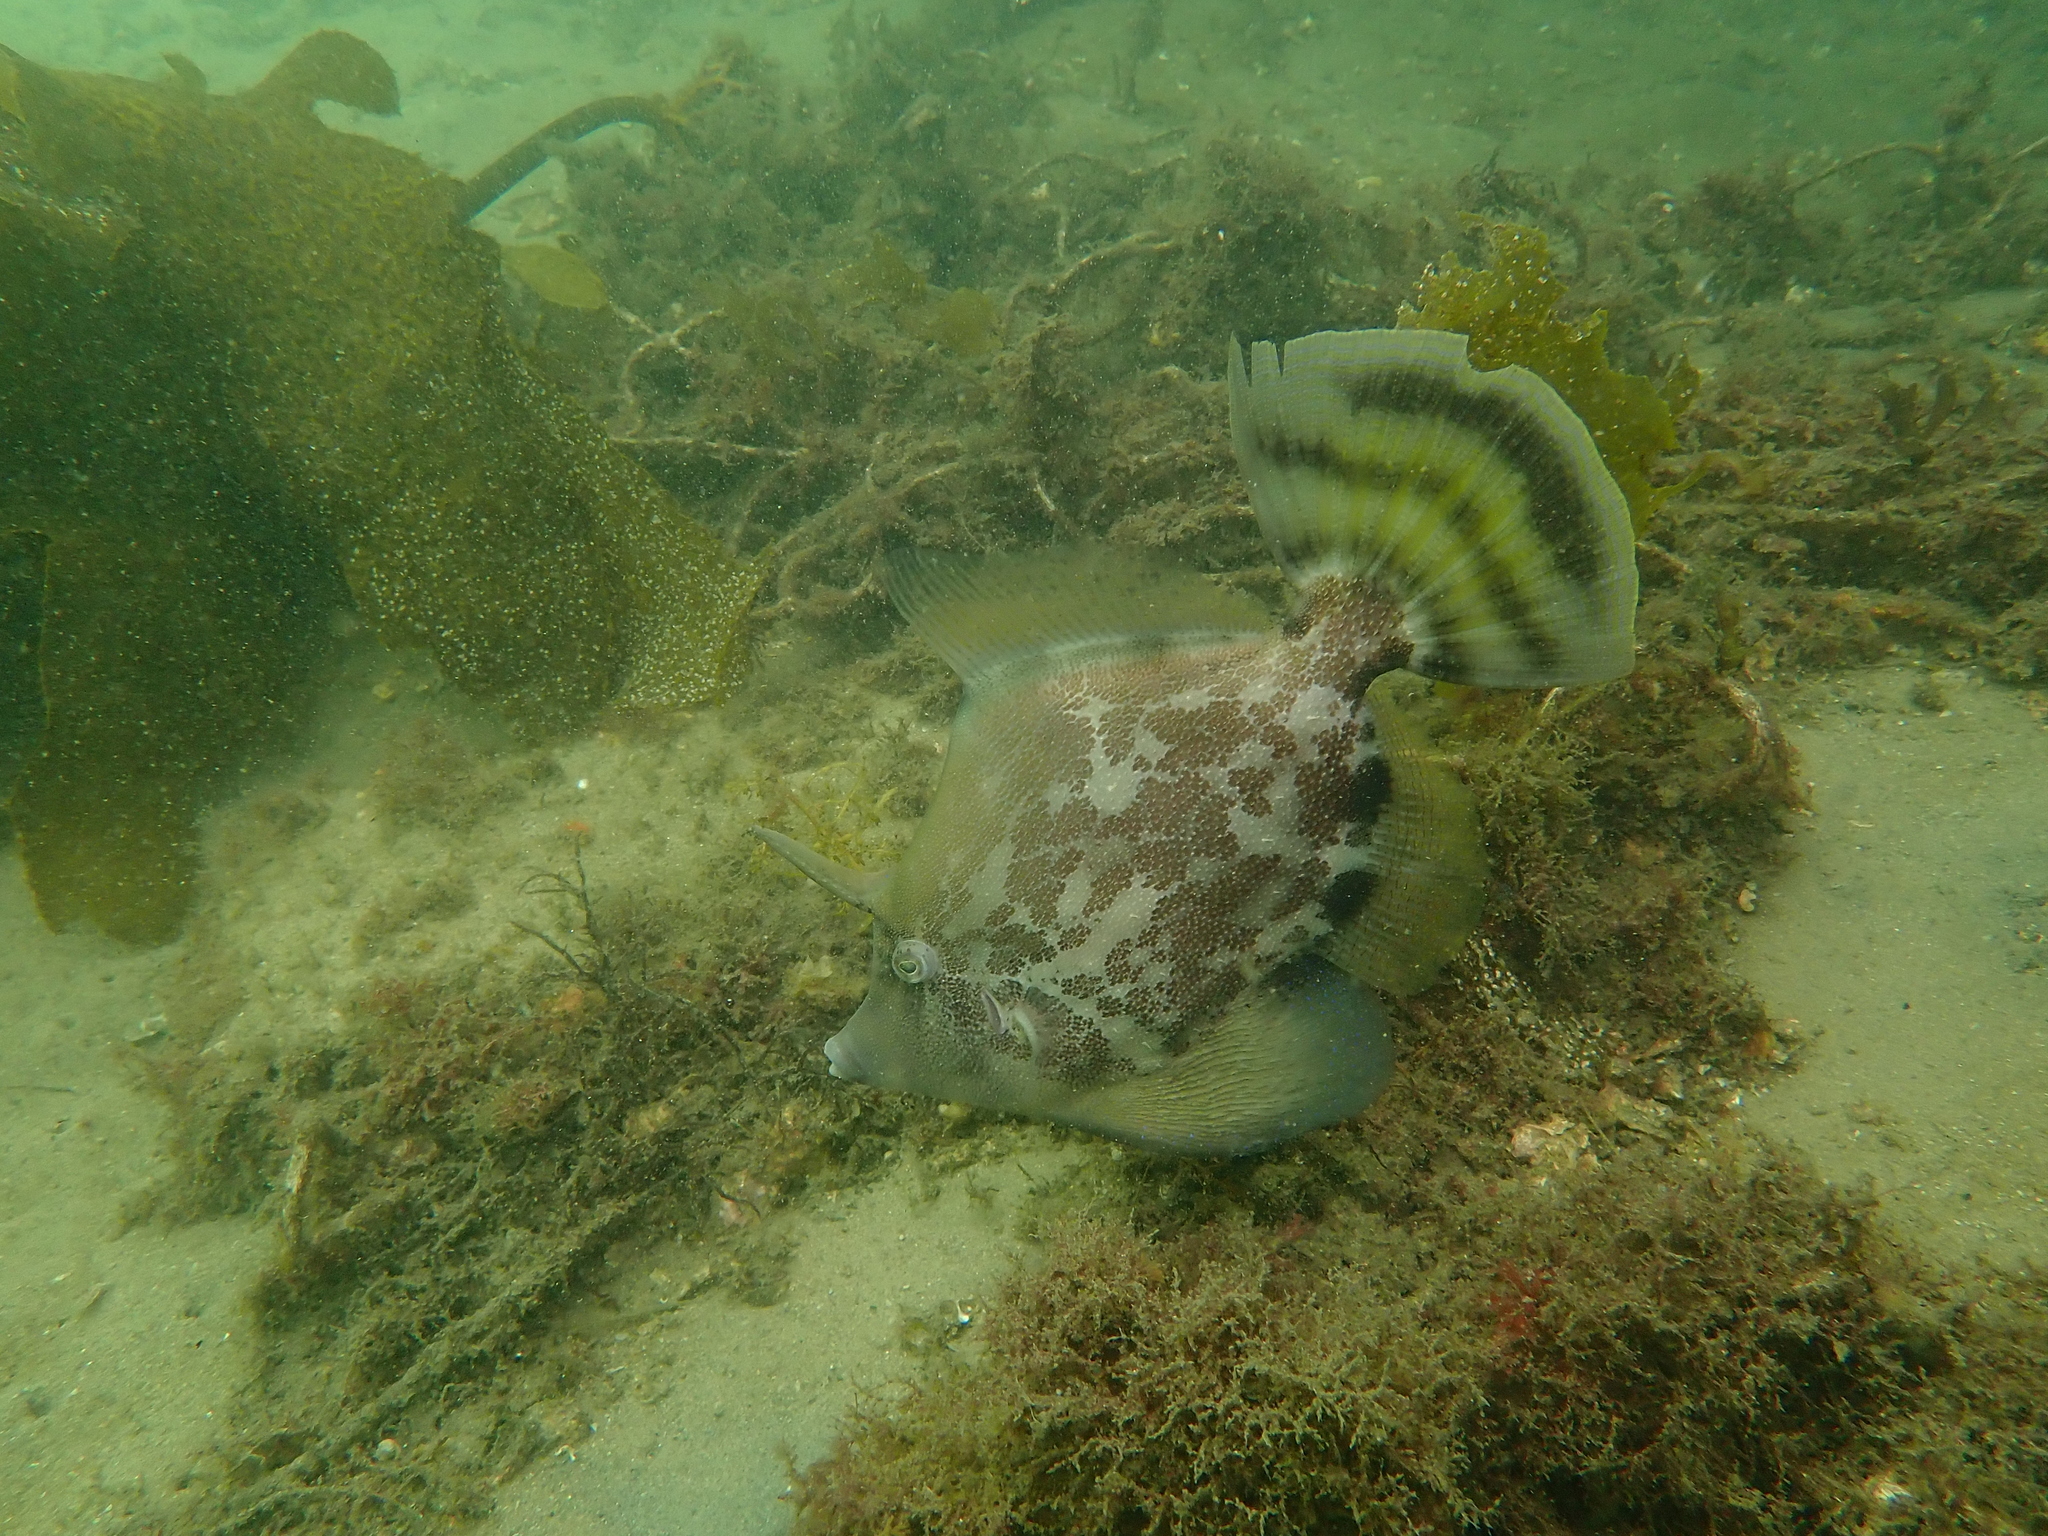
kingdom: Animalia
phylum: Chordata
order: Tetraodontiformes
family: Monacanthidae
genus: Monacanthus
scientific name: Monacanthus chinensis
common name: Centreboard leatherjacket
